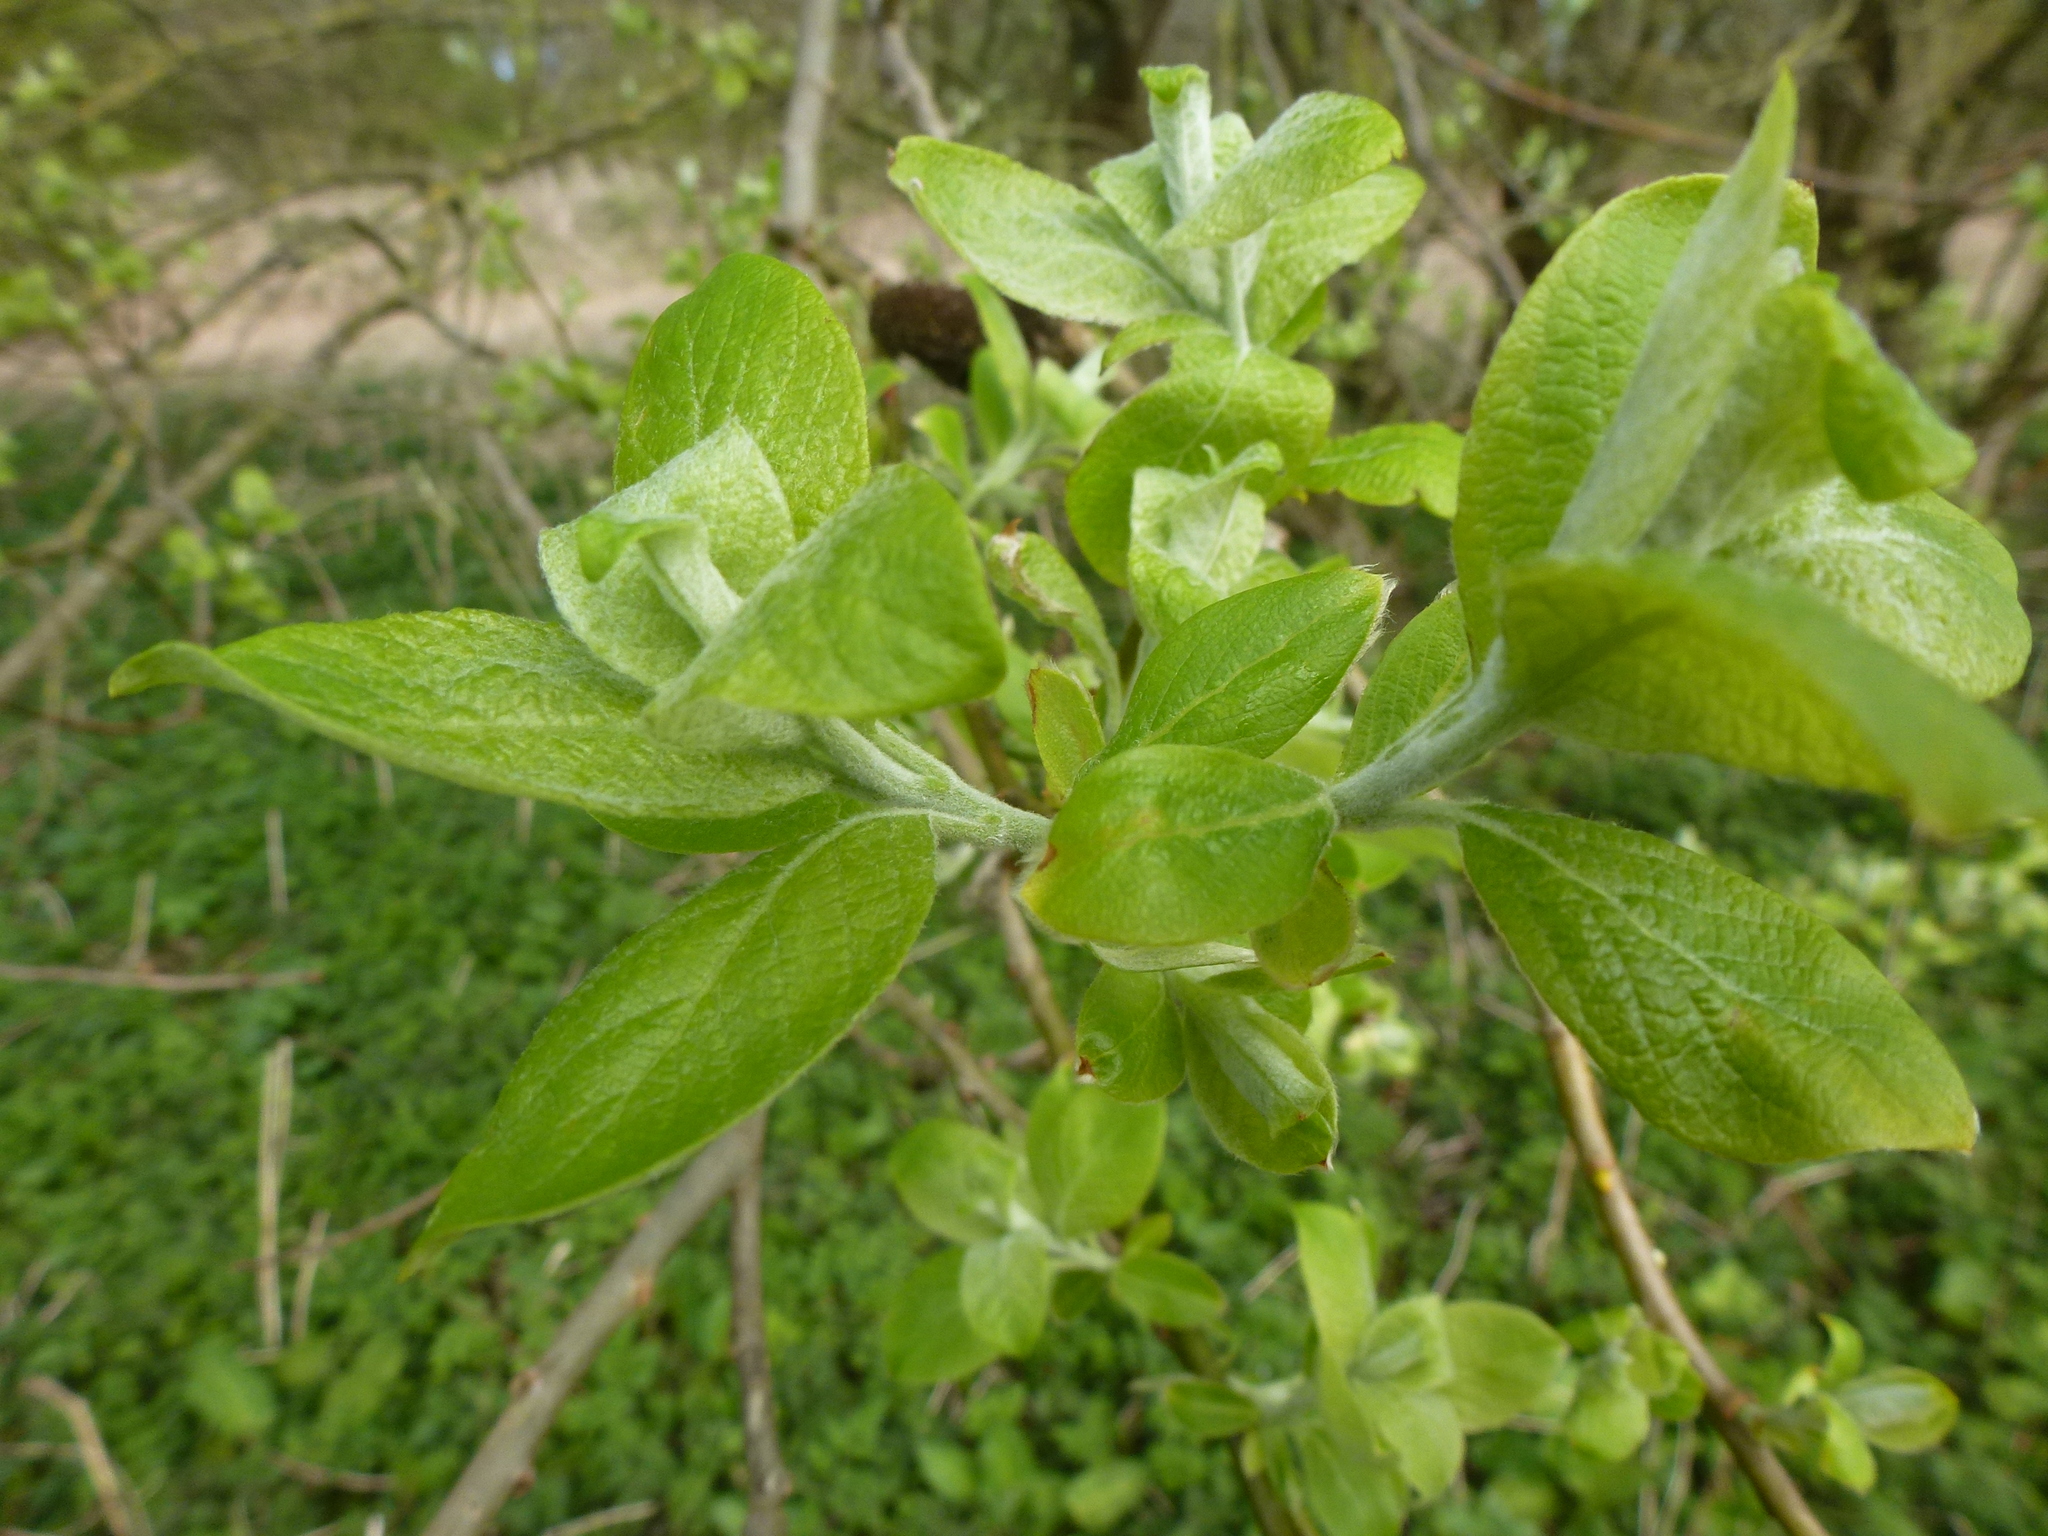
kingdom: Plantae
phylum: Tracheophyta
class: Magnoliopsida
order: Malpighiales
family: Salicaceae
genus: Salix
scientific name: Salix caprea
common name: Goat willow
